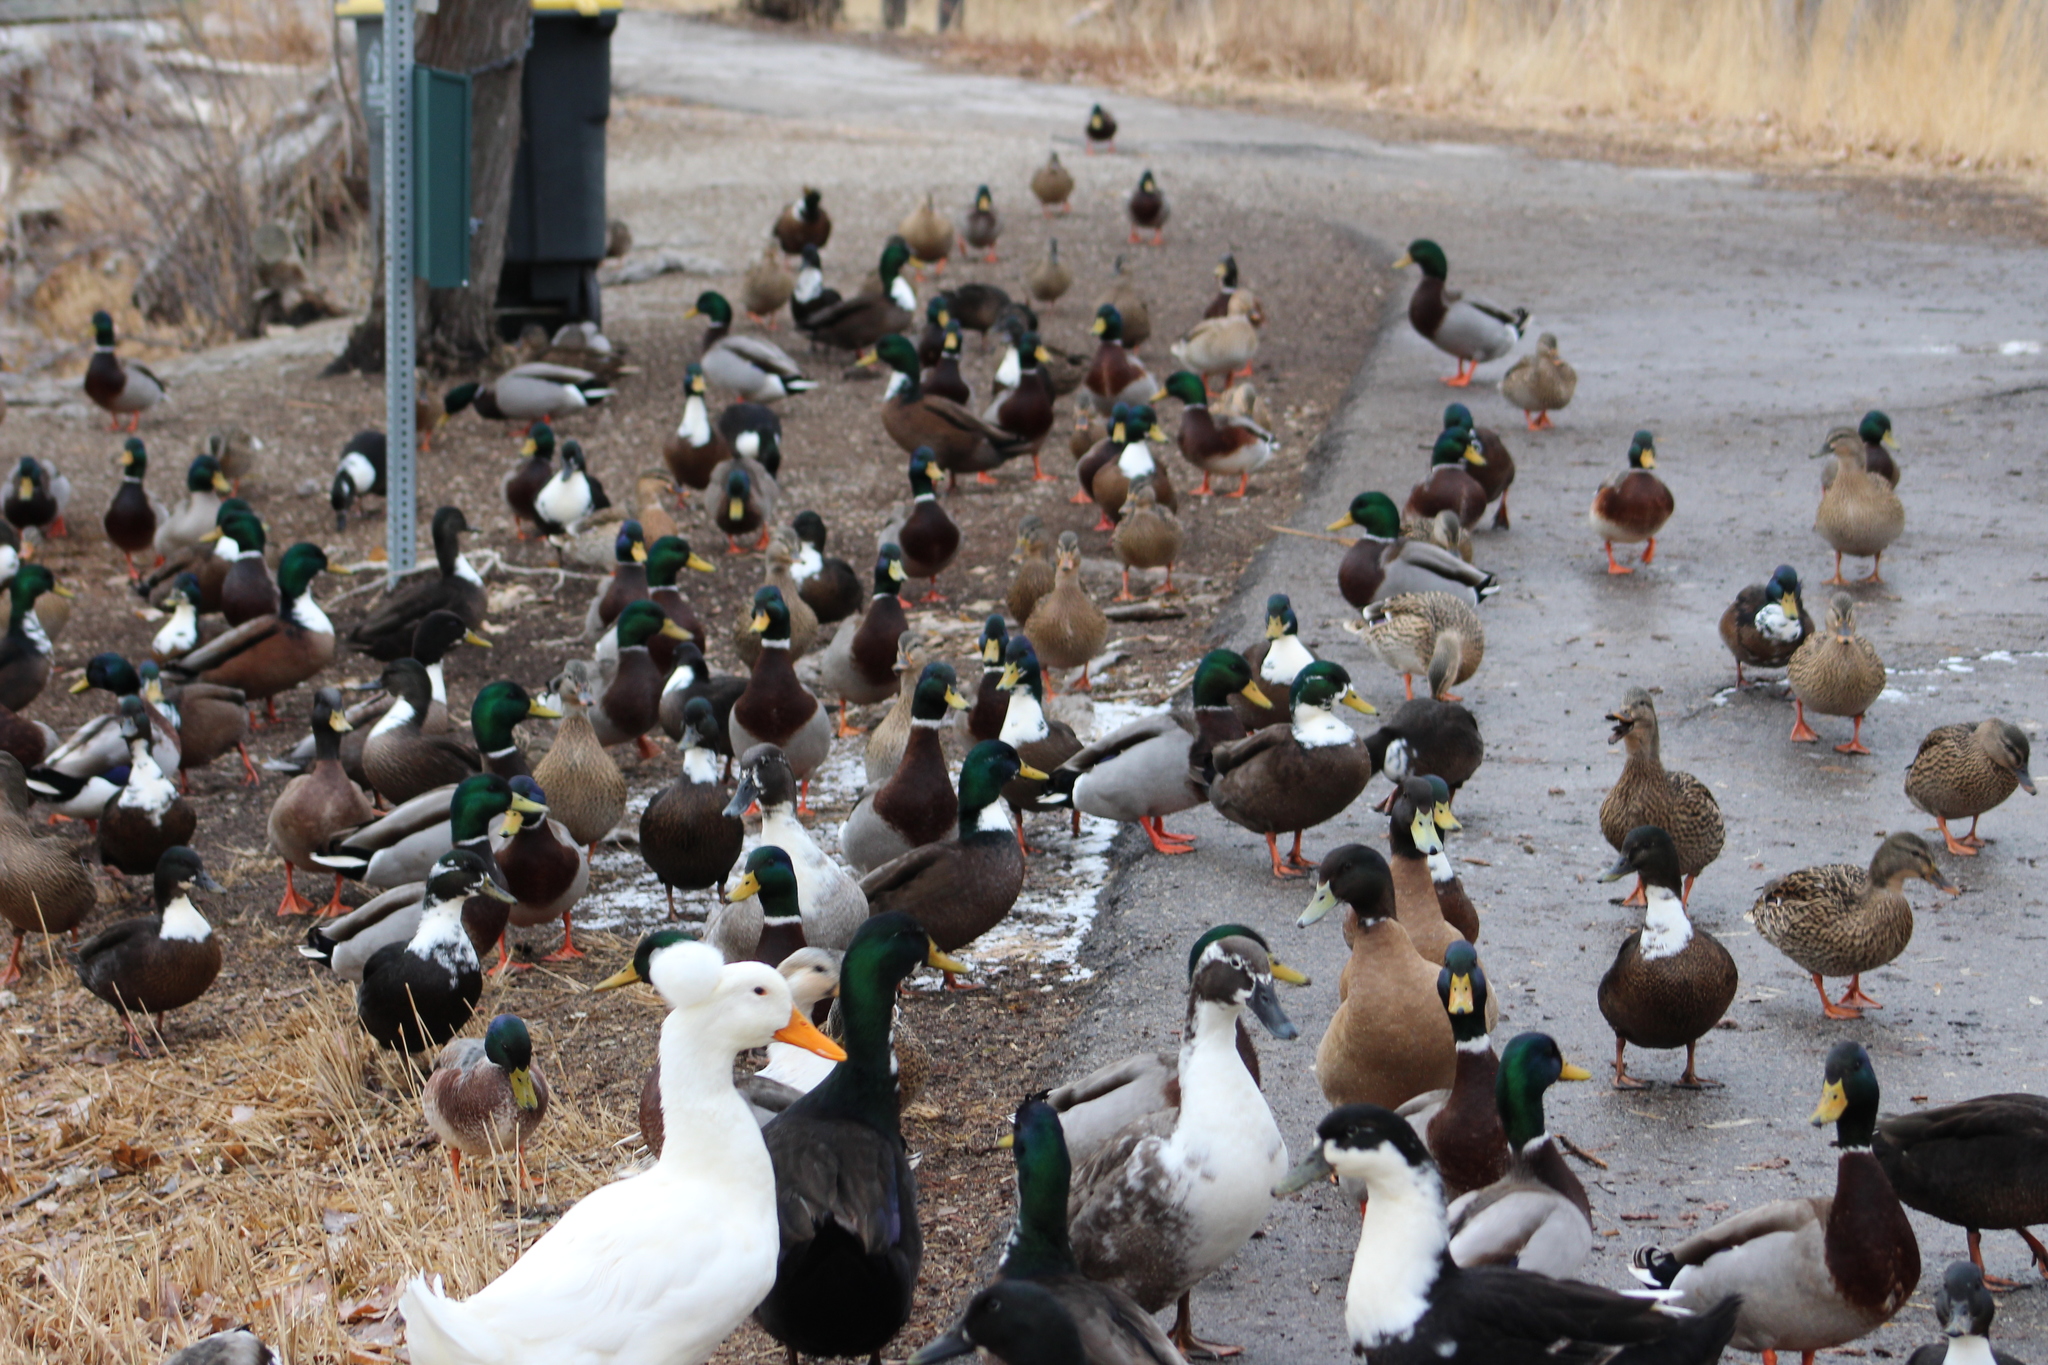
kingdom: Animalia
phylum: Chordata
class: Aves
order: Anseriformes
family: Anatidae
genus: Anas
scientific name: Anas platyrhynchos
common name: Mallard
